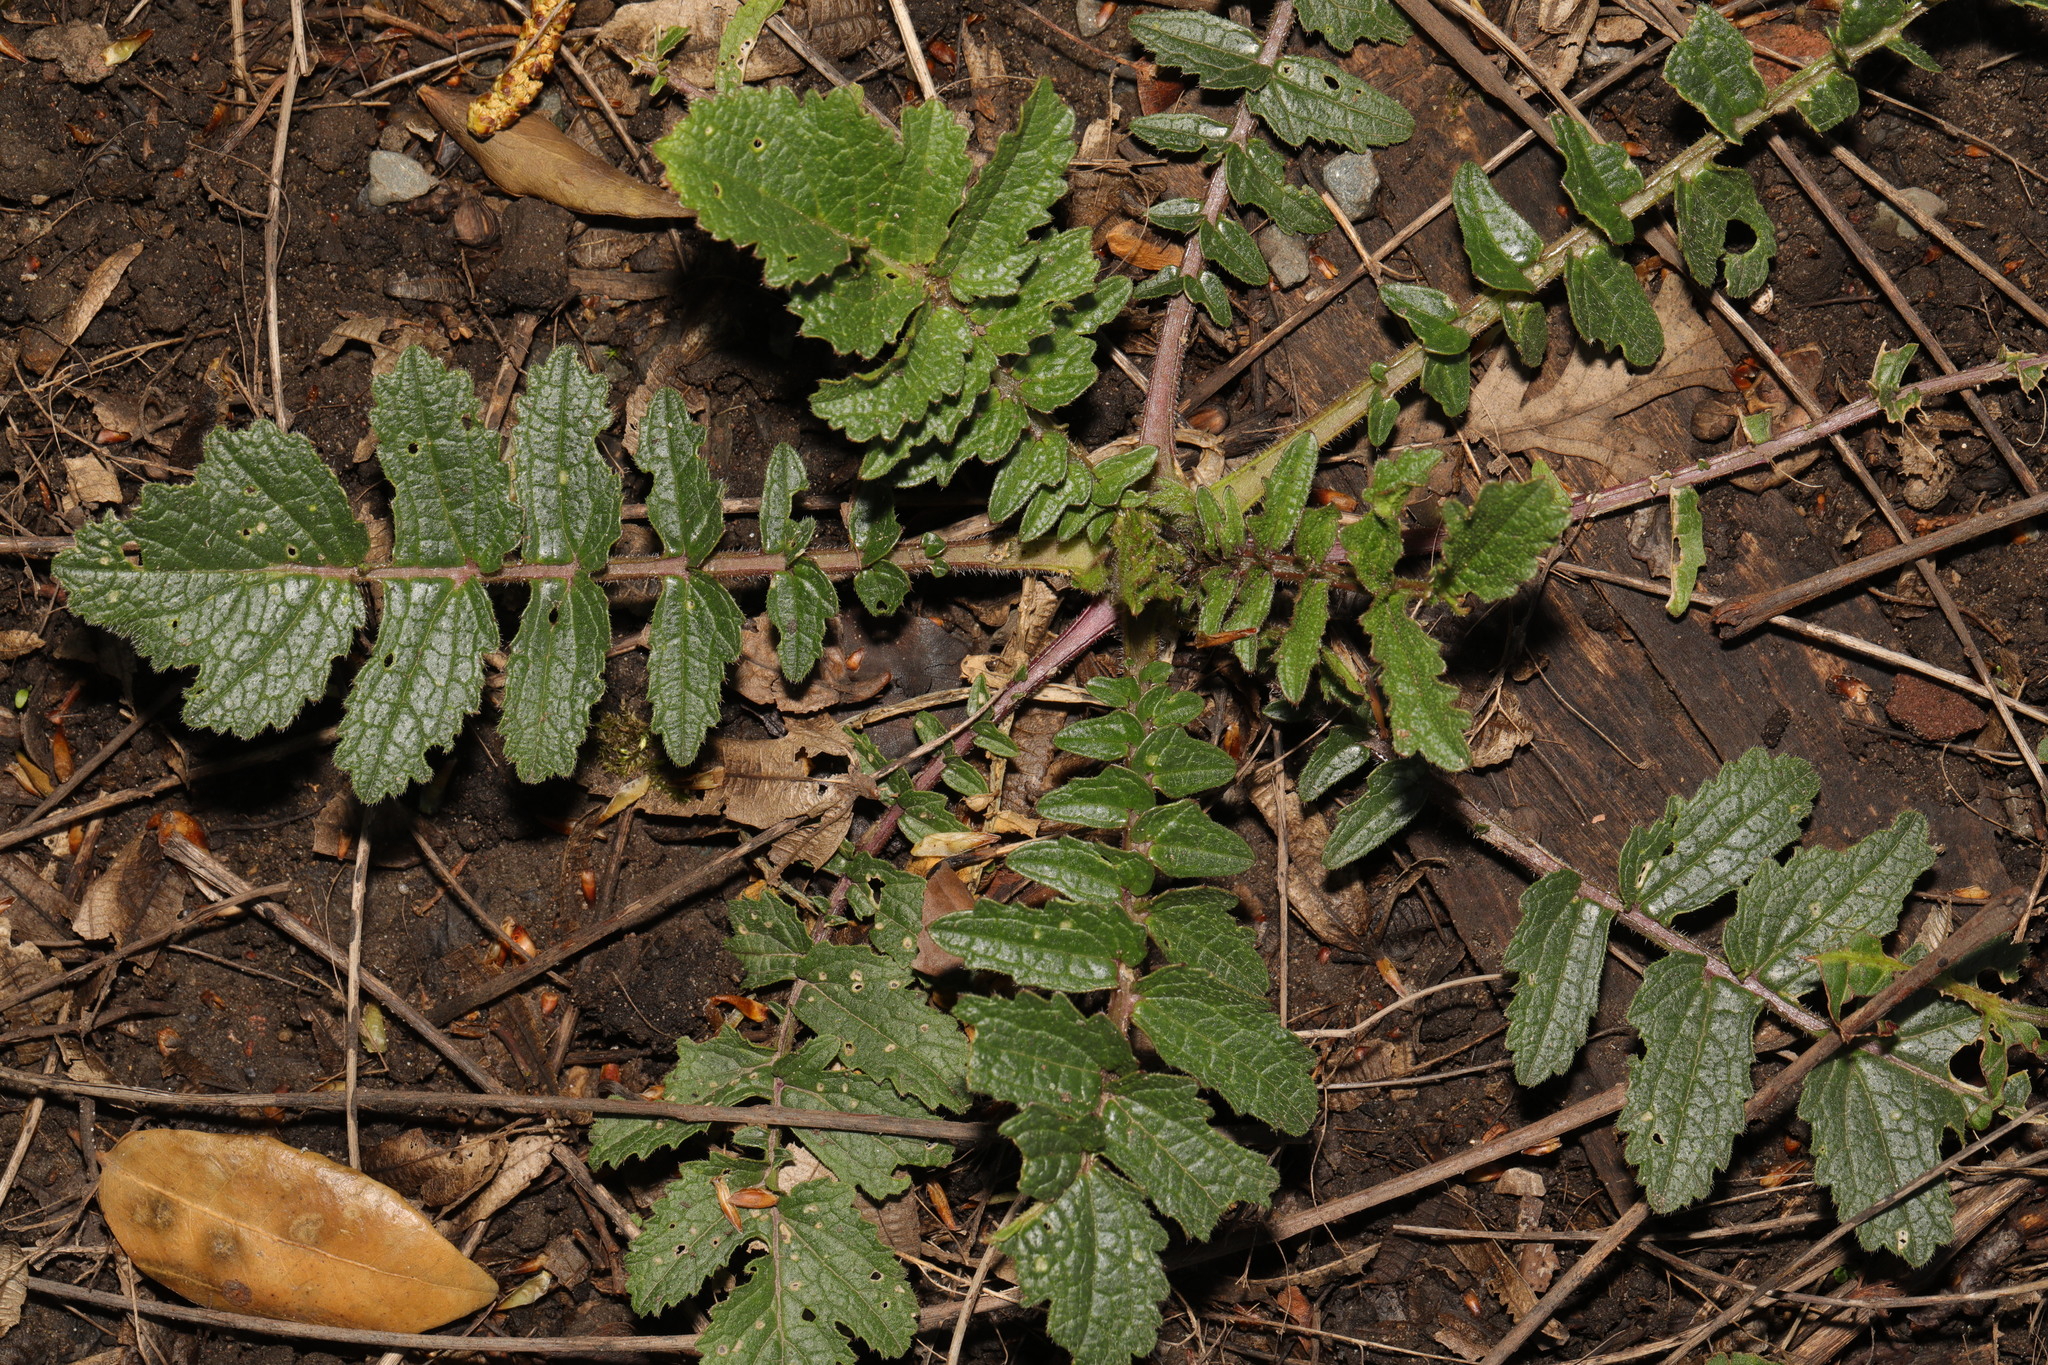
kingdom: Plantae
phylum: Tracheophyta
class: Magnoliopsida
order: Brassicales
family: Brassicaceae
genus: Raphanus
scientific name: Raphanus raphanistrum
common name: Wild radish
